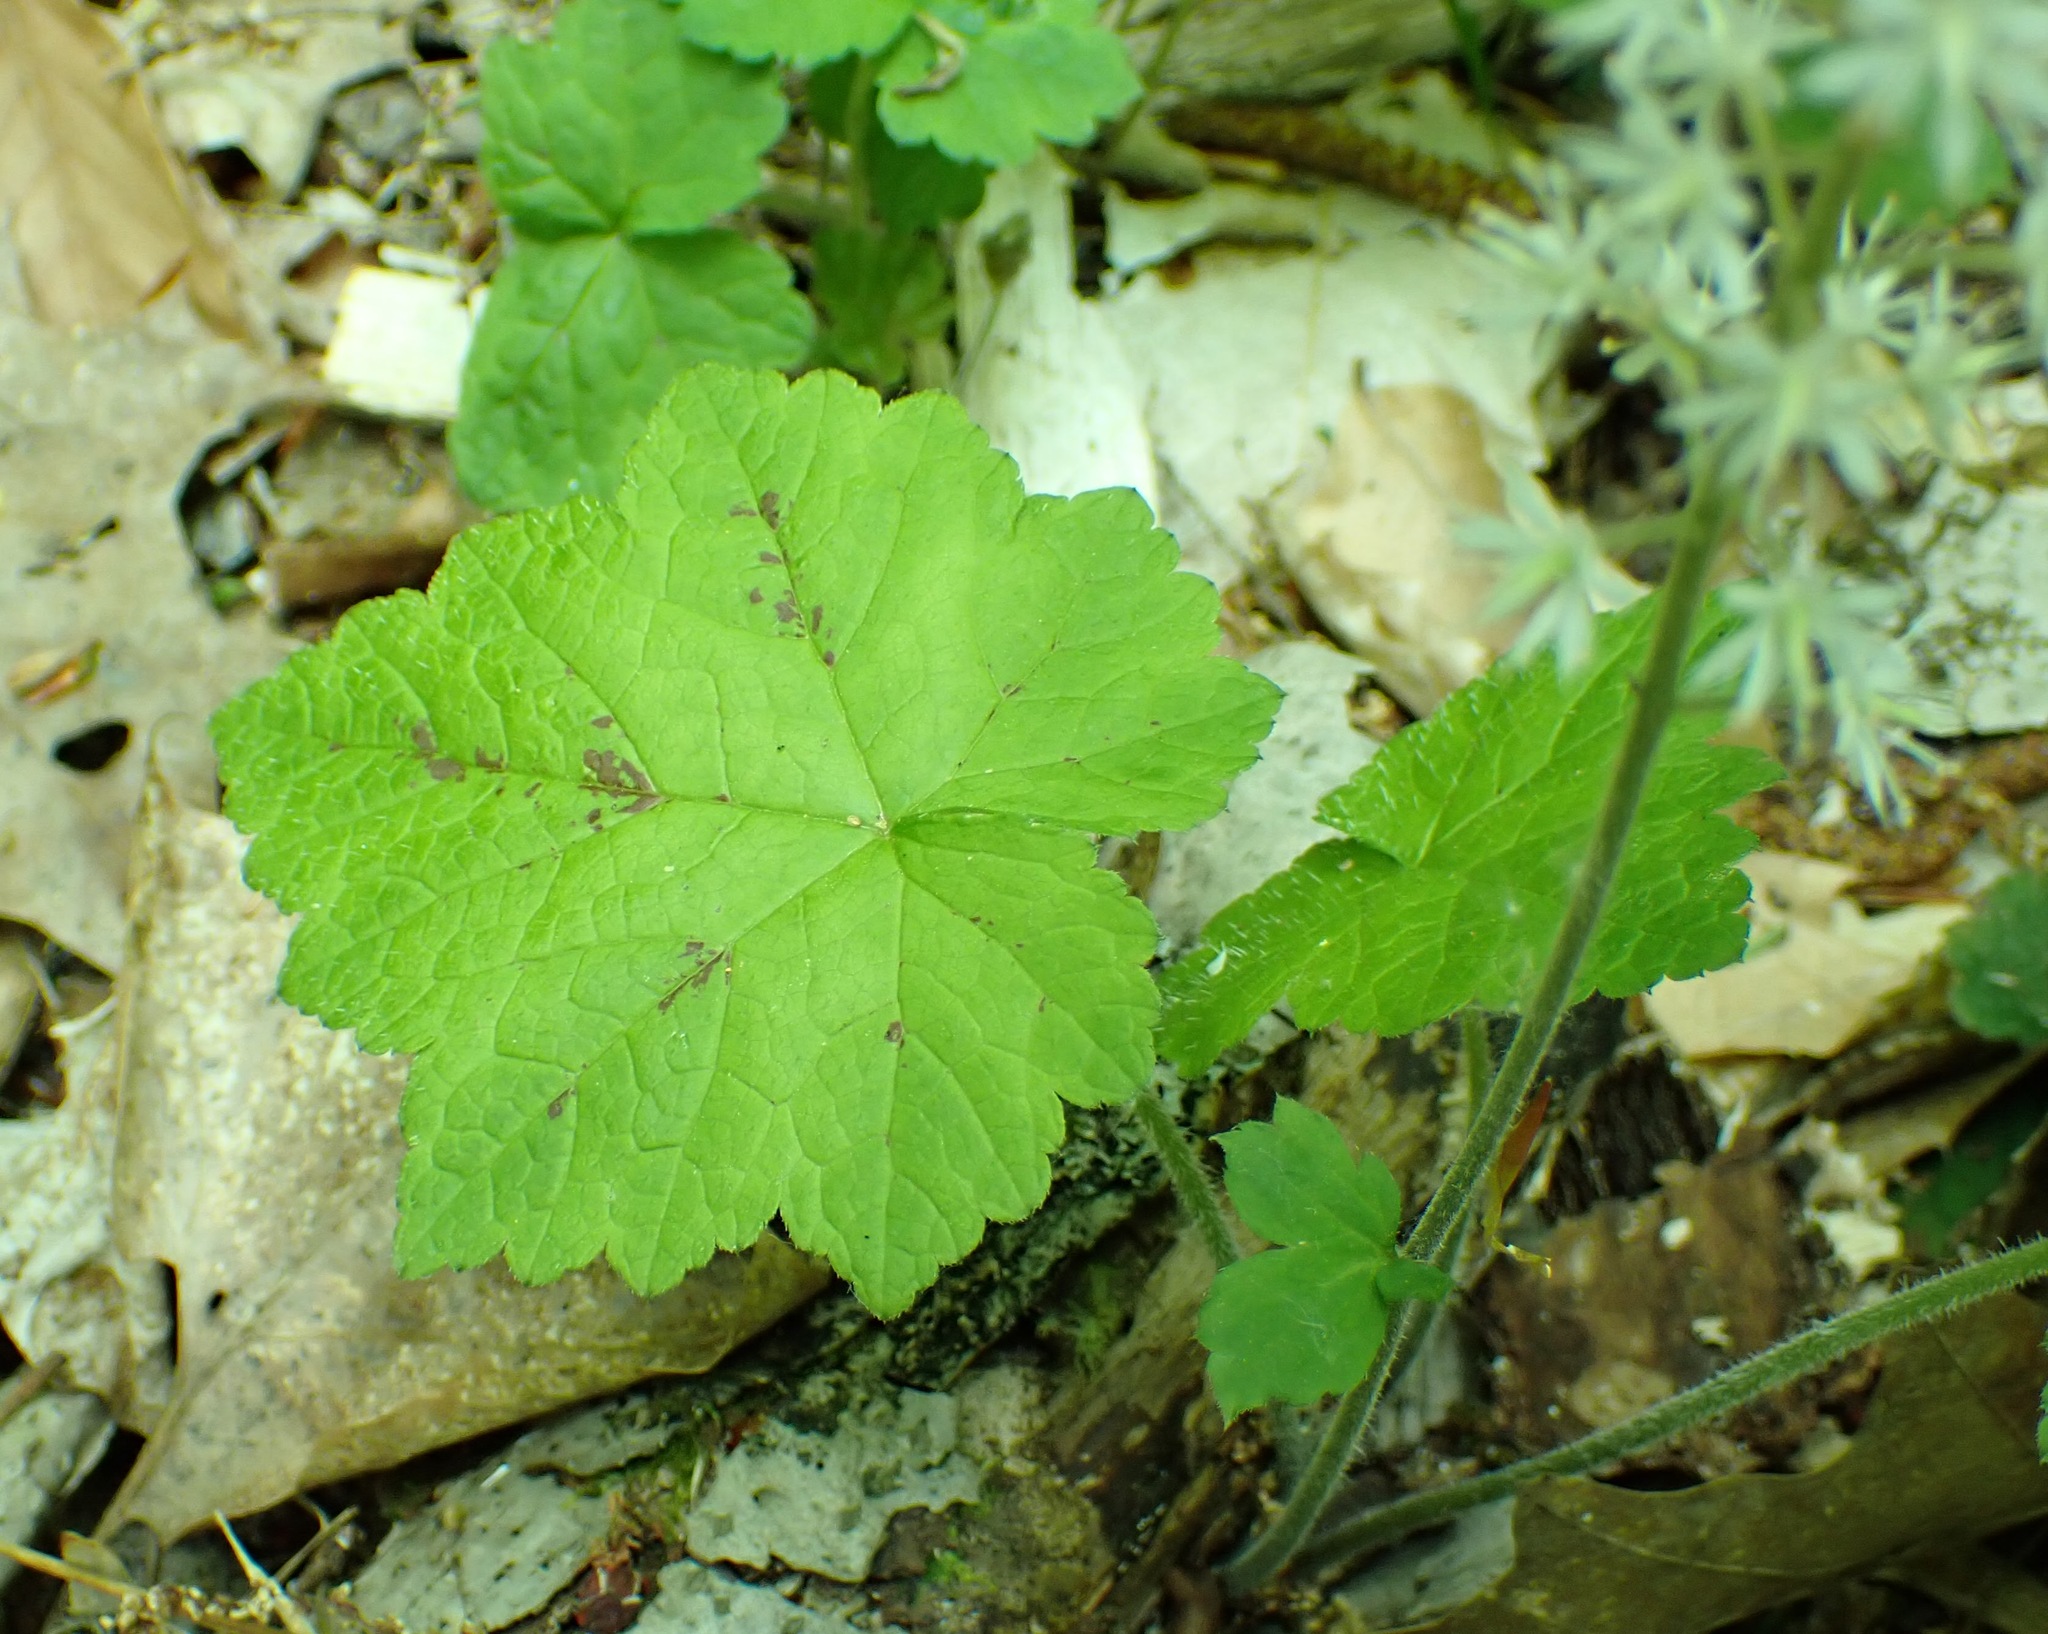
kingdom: Plantae
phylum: Tracheophyta
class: Magnoliopsida
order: Saxifragales
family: Saxifragaceae
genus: Tiarella
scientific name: Tiarella stolonifera
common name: Stoloniferous foamflower
